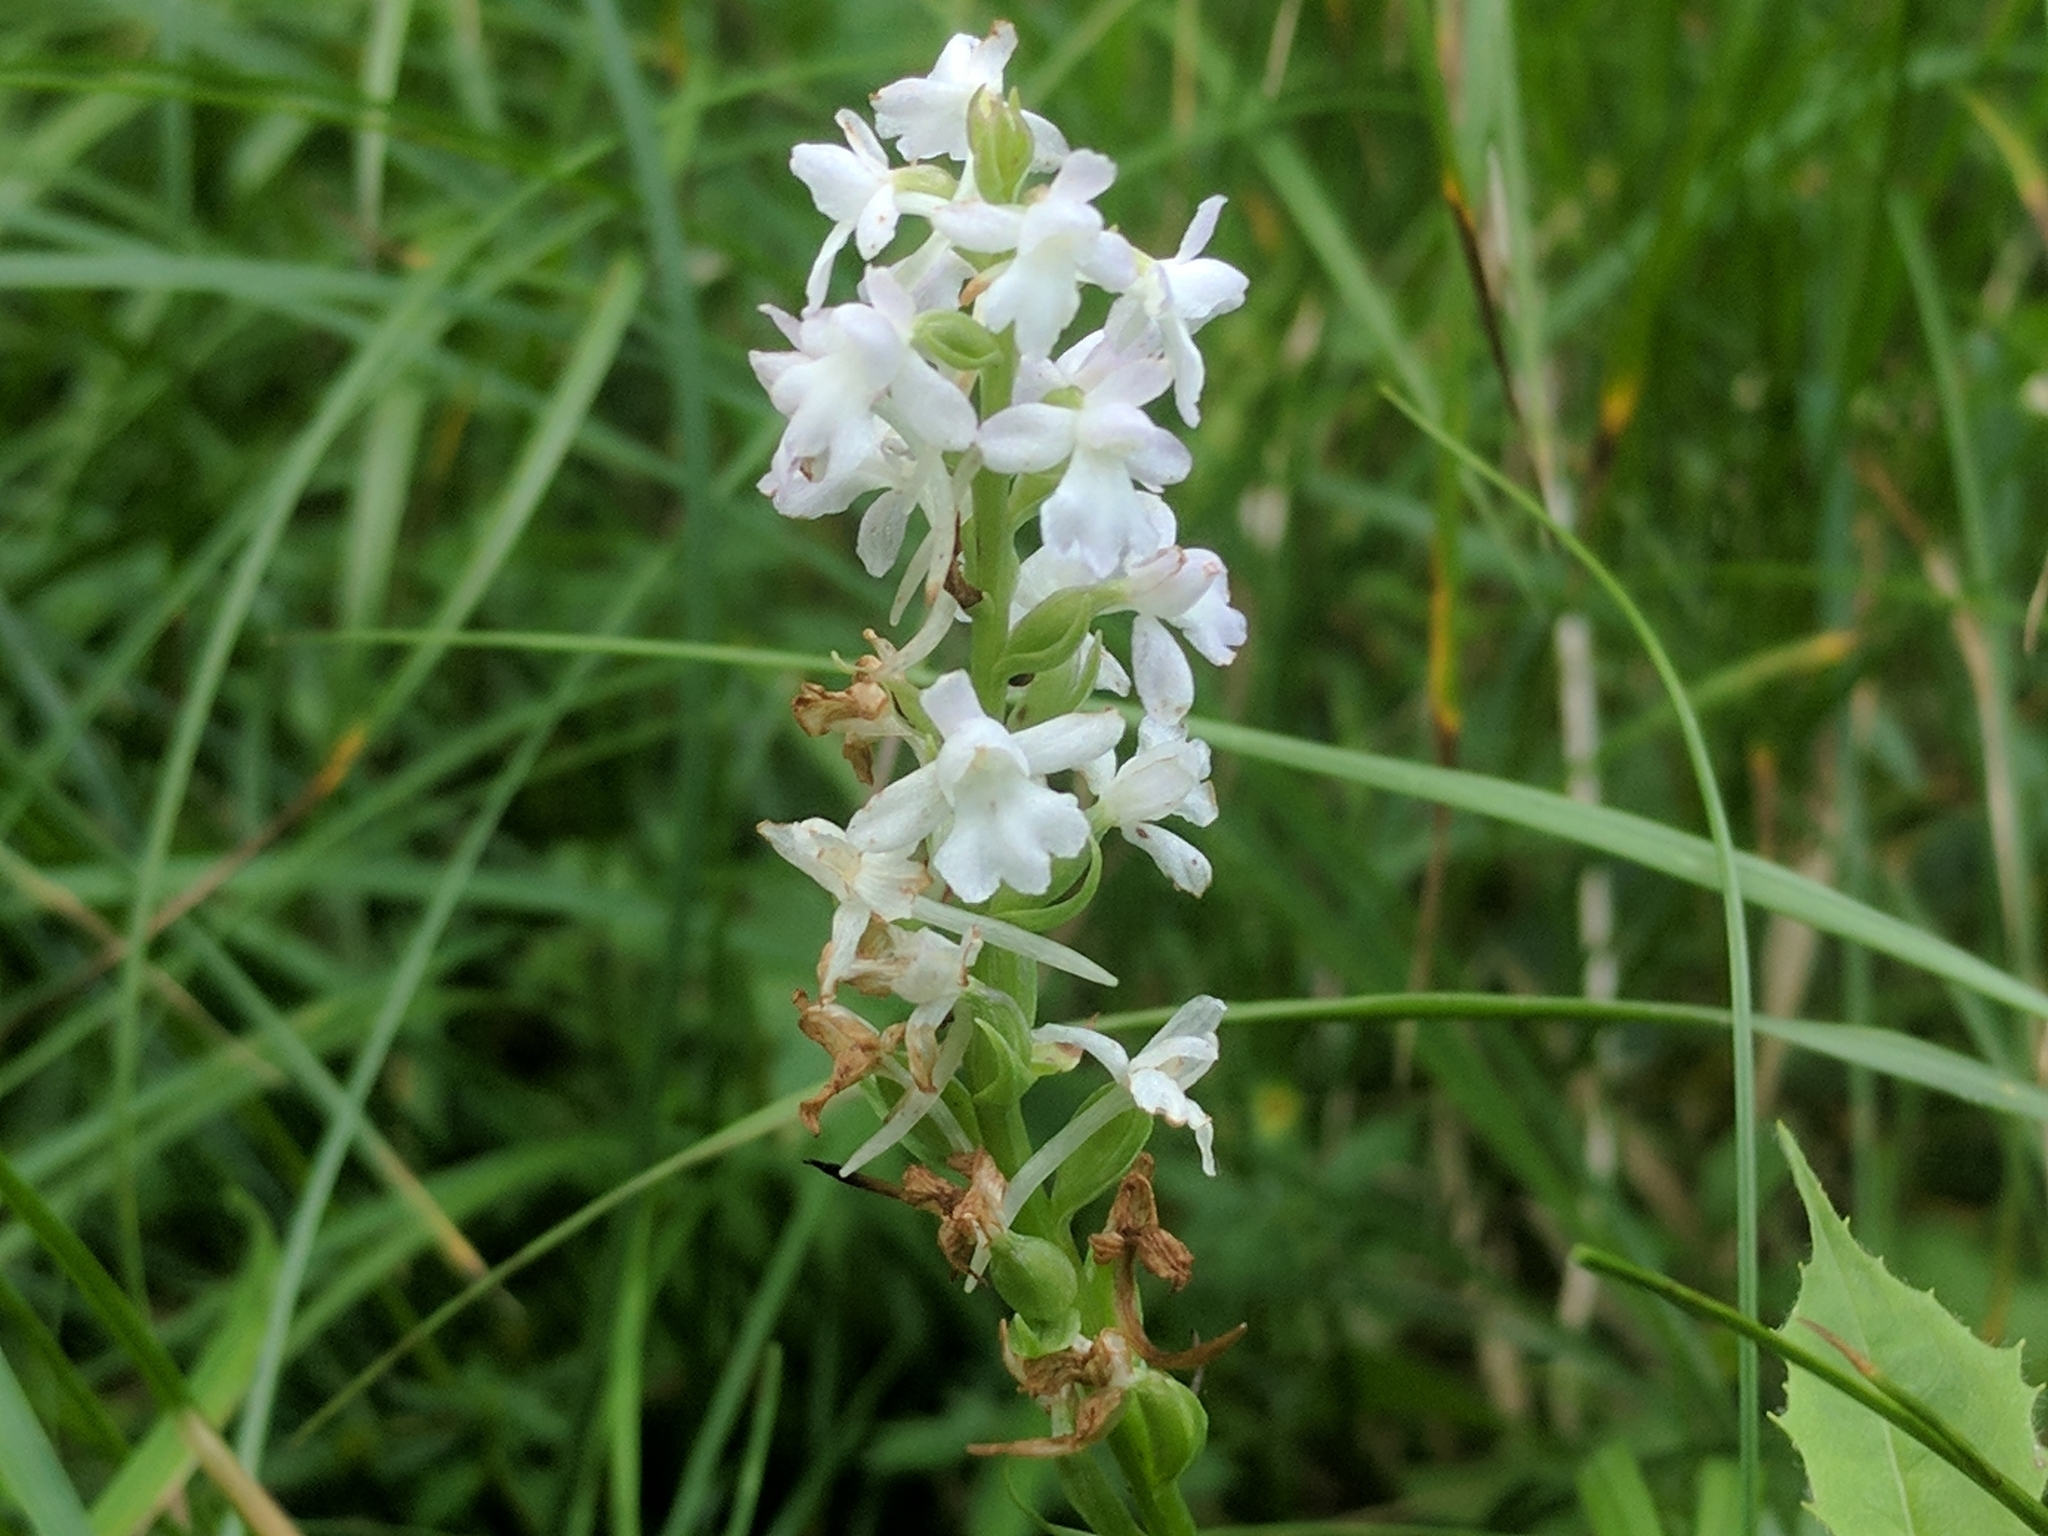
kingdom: Plantae
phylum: Tracheophyta
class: Liliopsida
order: Asparagales
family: Orchidaceae
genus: Gymnadenia
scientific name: Gymnadenia conopsea
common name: Fragrant orchid
